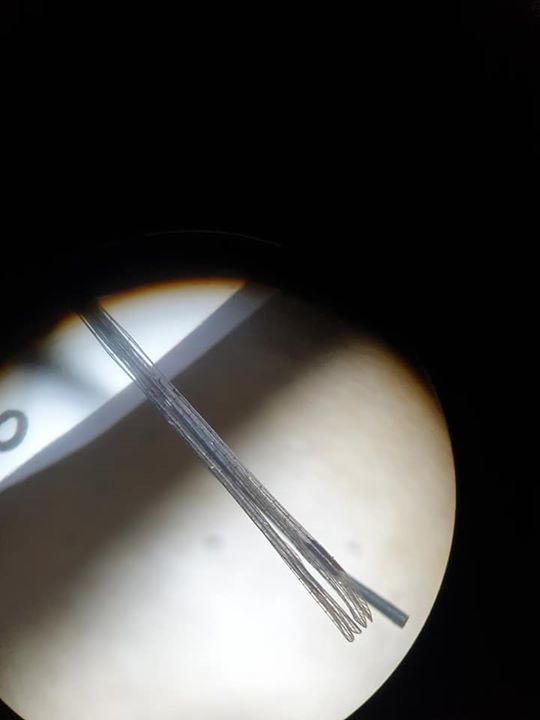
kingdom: Animalia
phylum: Arthropoda
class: Insecta
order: Odonata
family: Lestidae
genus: Austrolestes
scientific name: Austrolestes colensonis
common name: Blue damselfly
